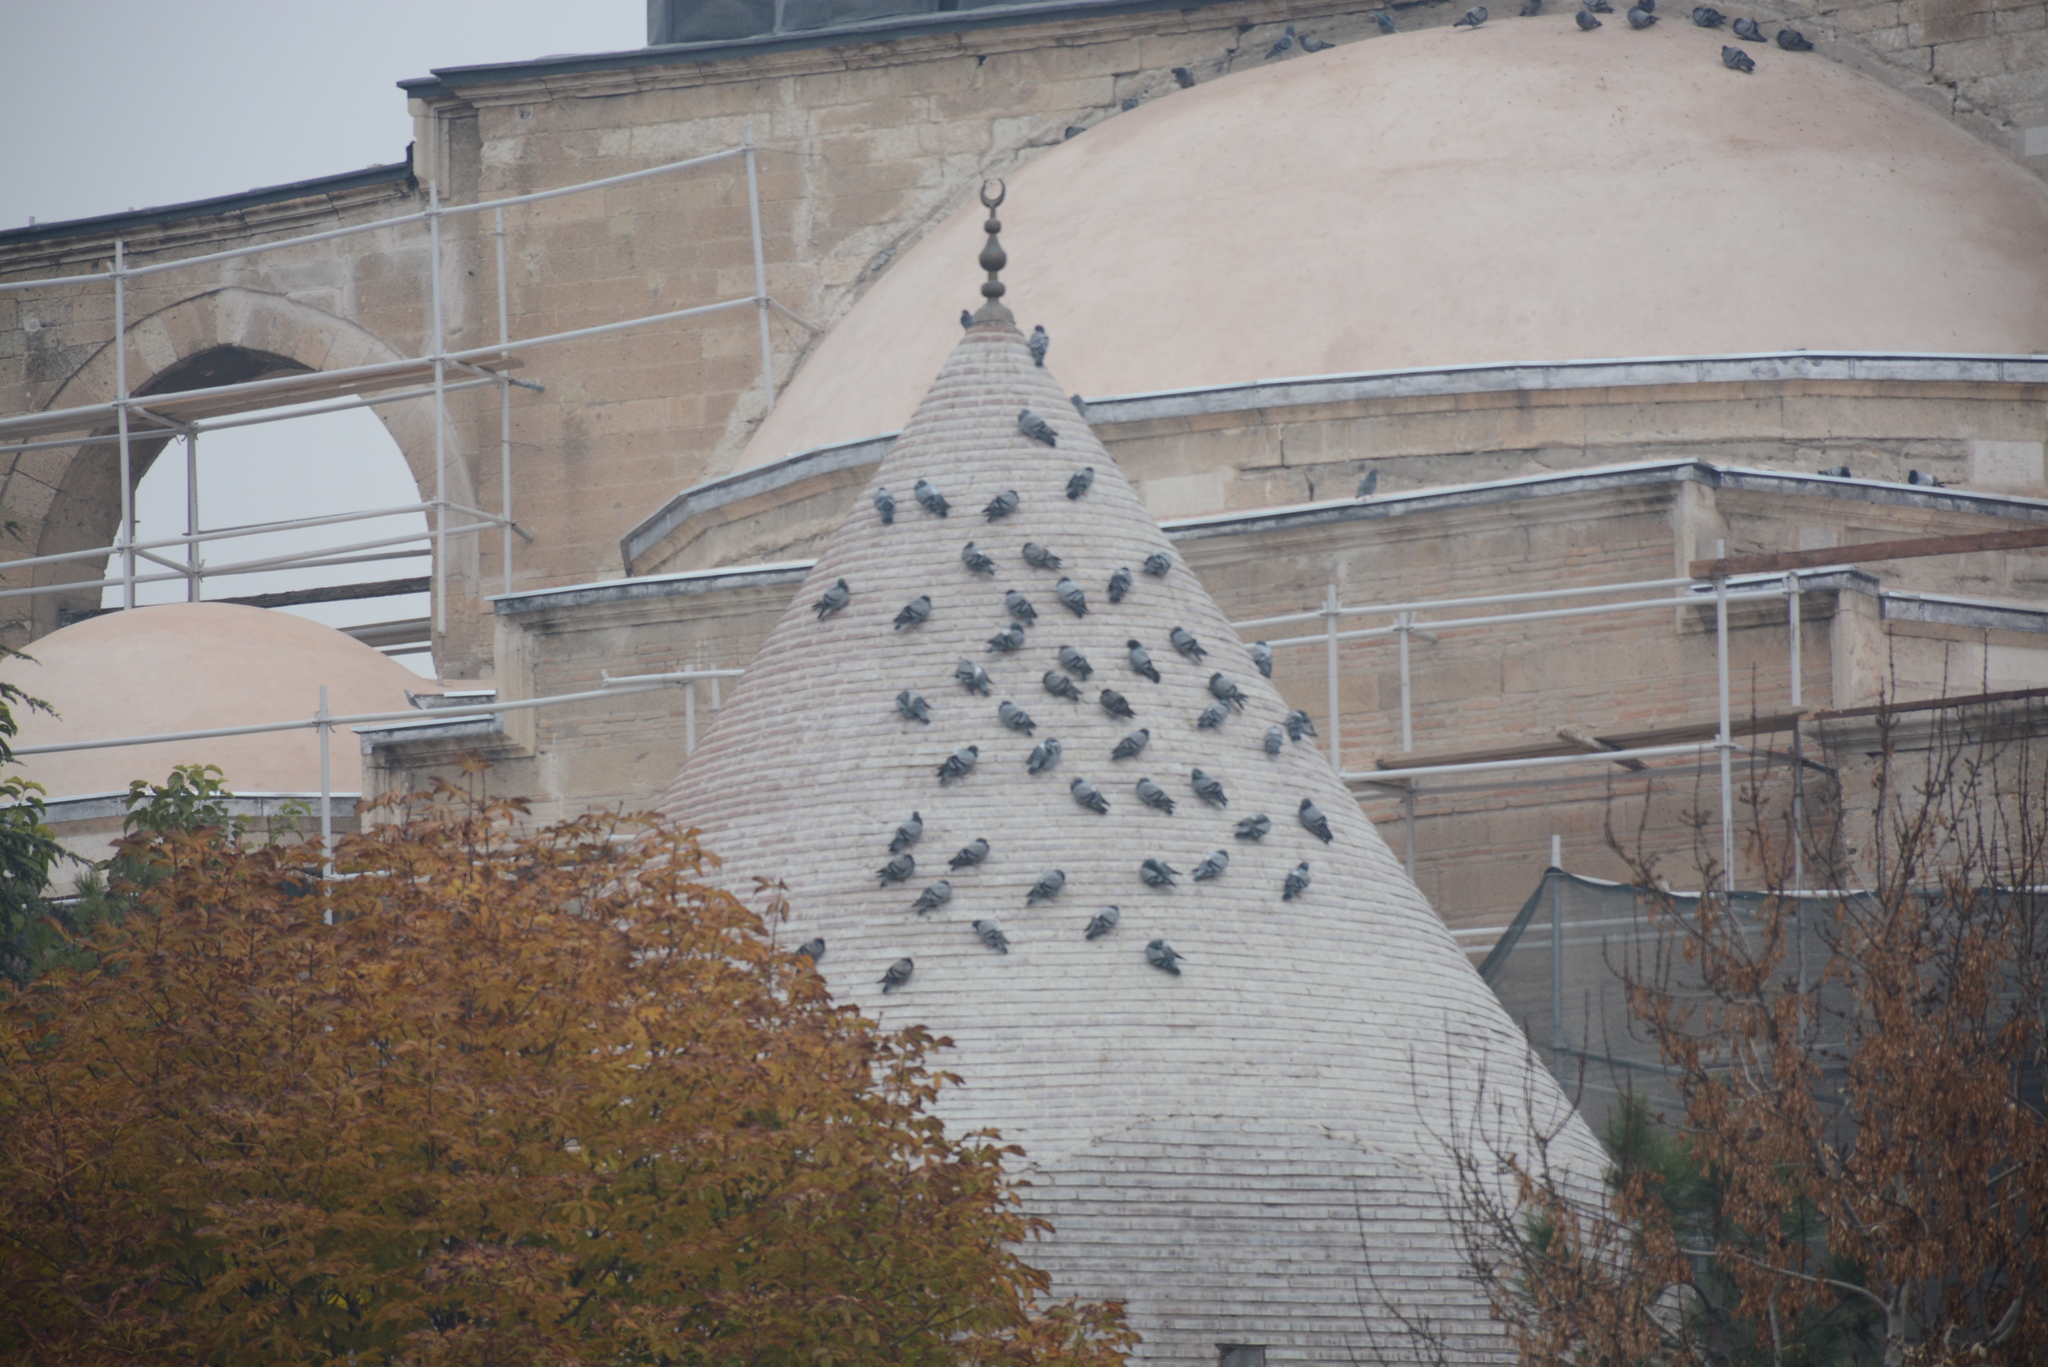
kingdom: Animalia
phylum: Chordata
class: Aves
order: Columbiformes
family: Columbidae
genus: Columba
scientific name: Columba livia
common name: Rock pigeon
